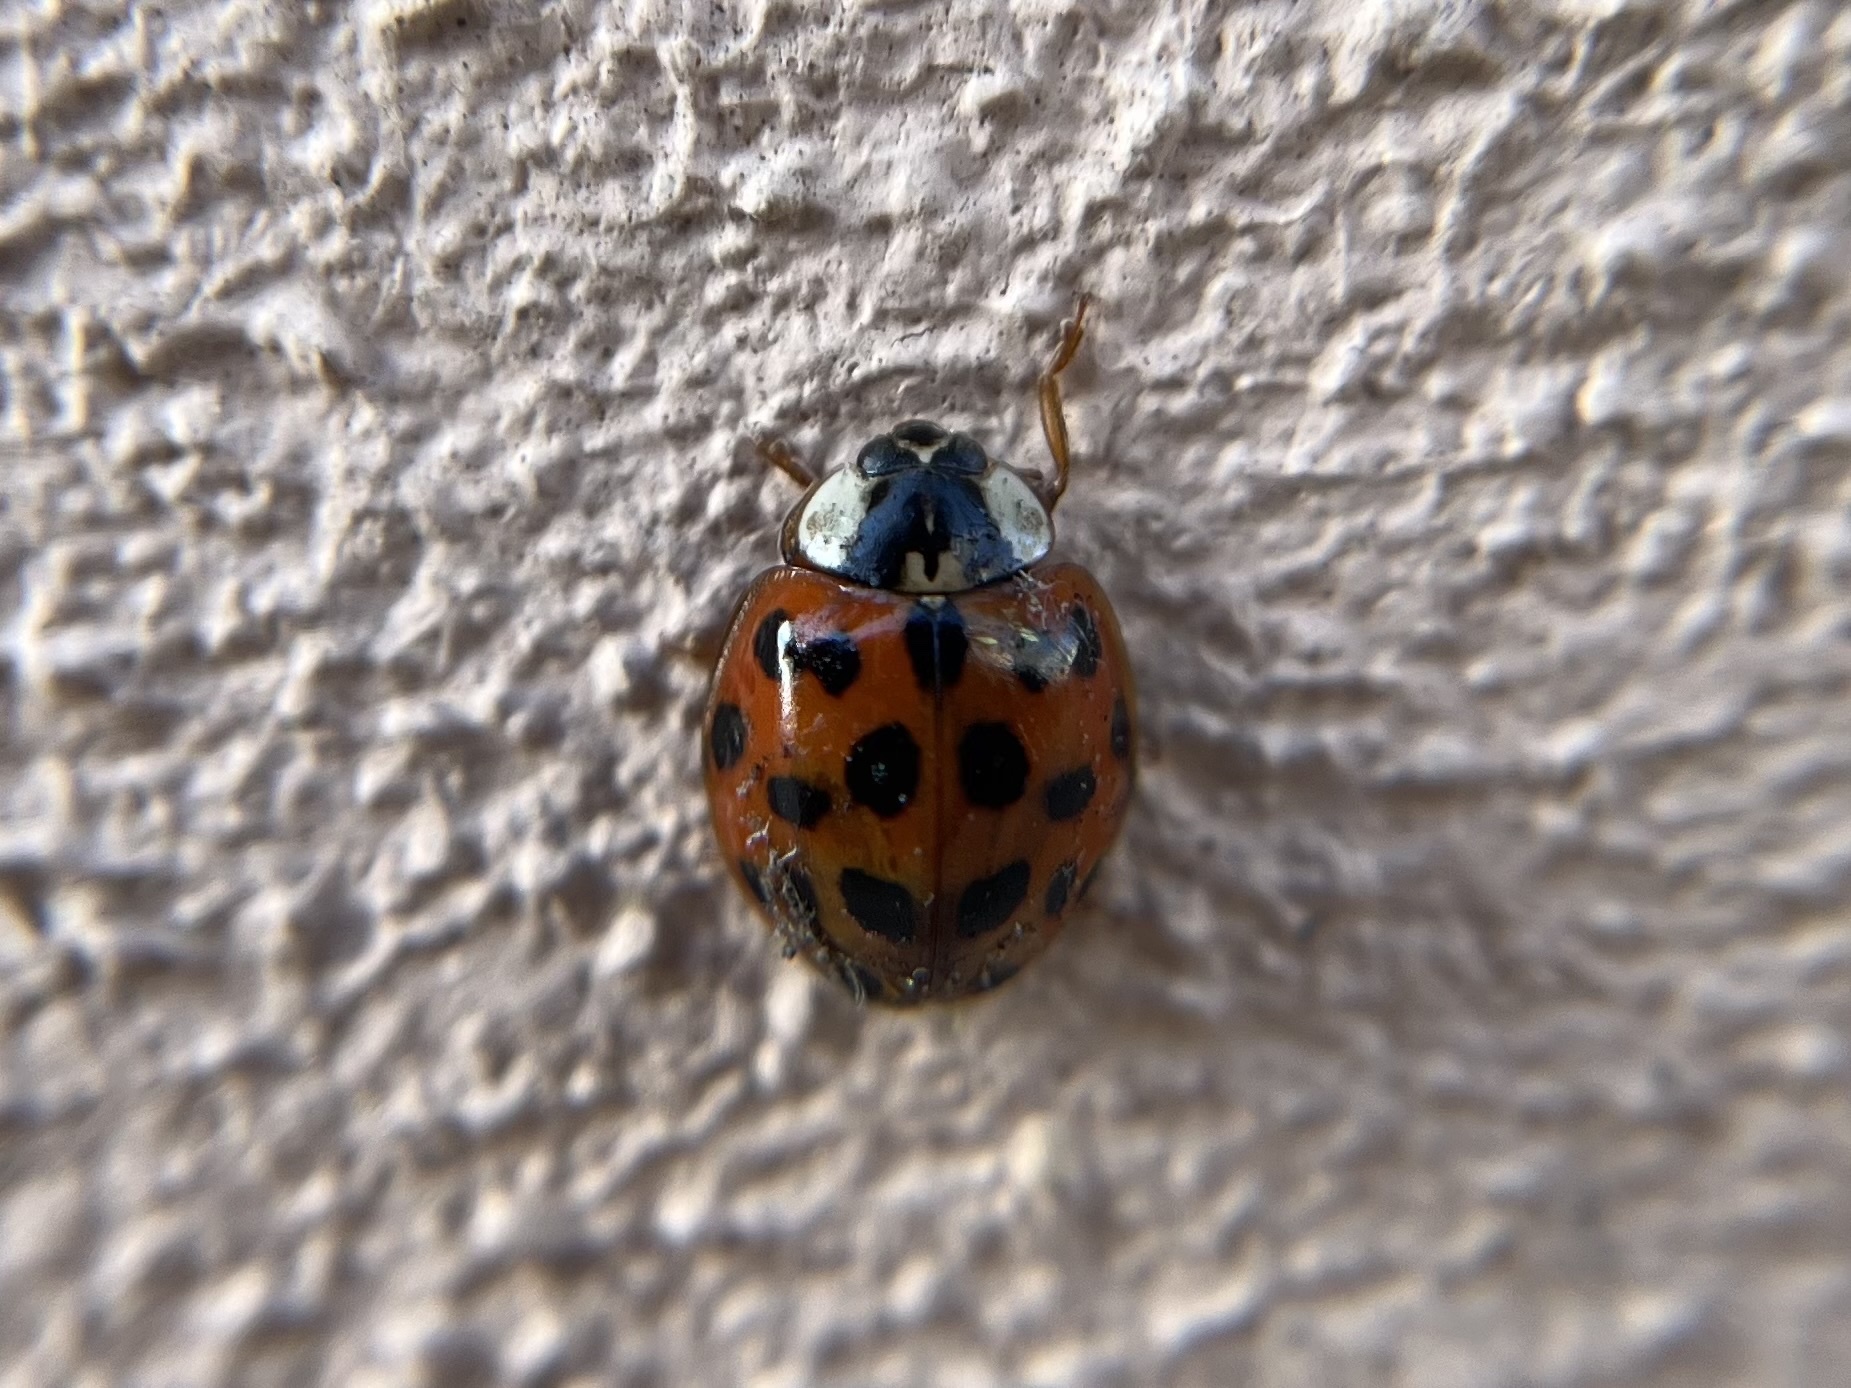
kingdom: Animalia
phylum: Arthropoda
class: Insecta
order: Coleoptera
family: Coccinellidae
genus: Harmonia
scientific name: Harmonia axyridis
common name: Harlequin ladybird
